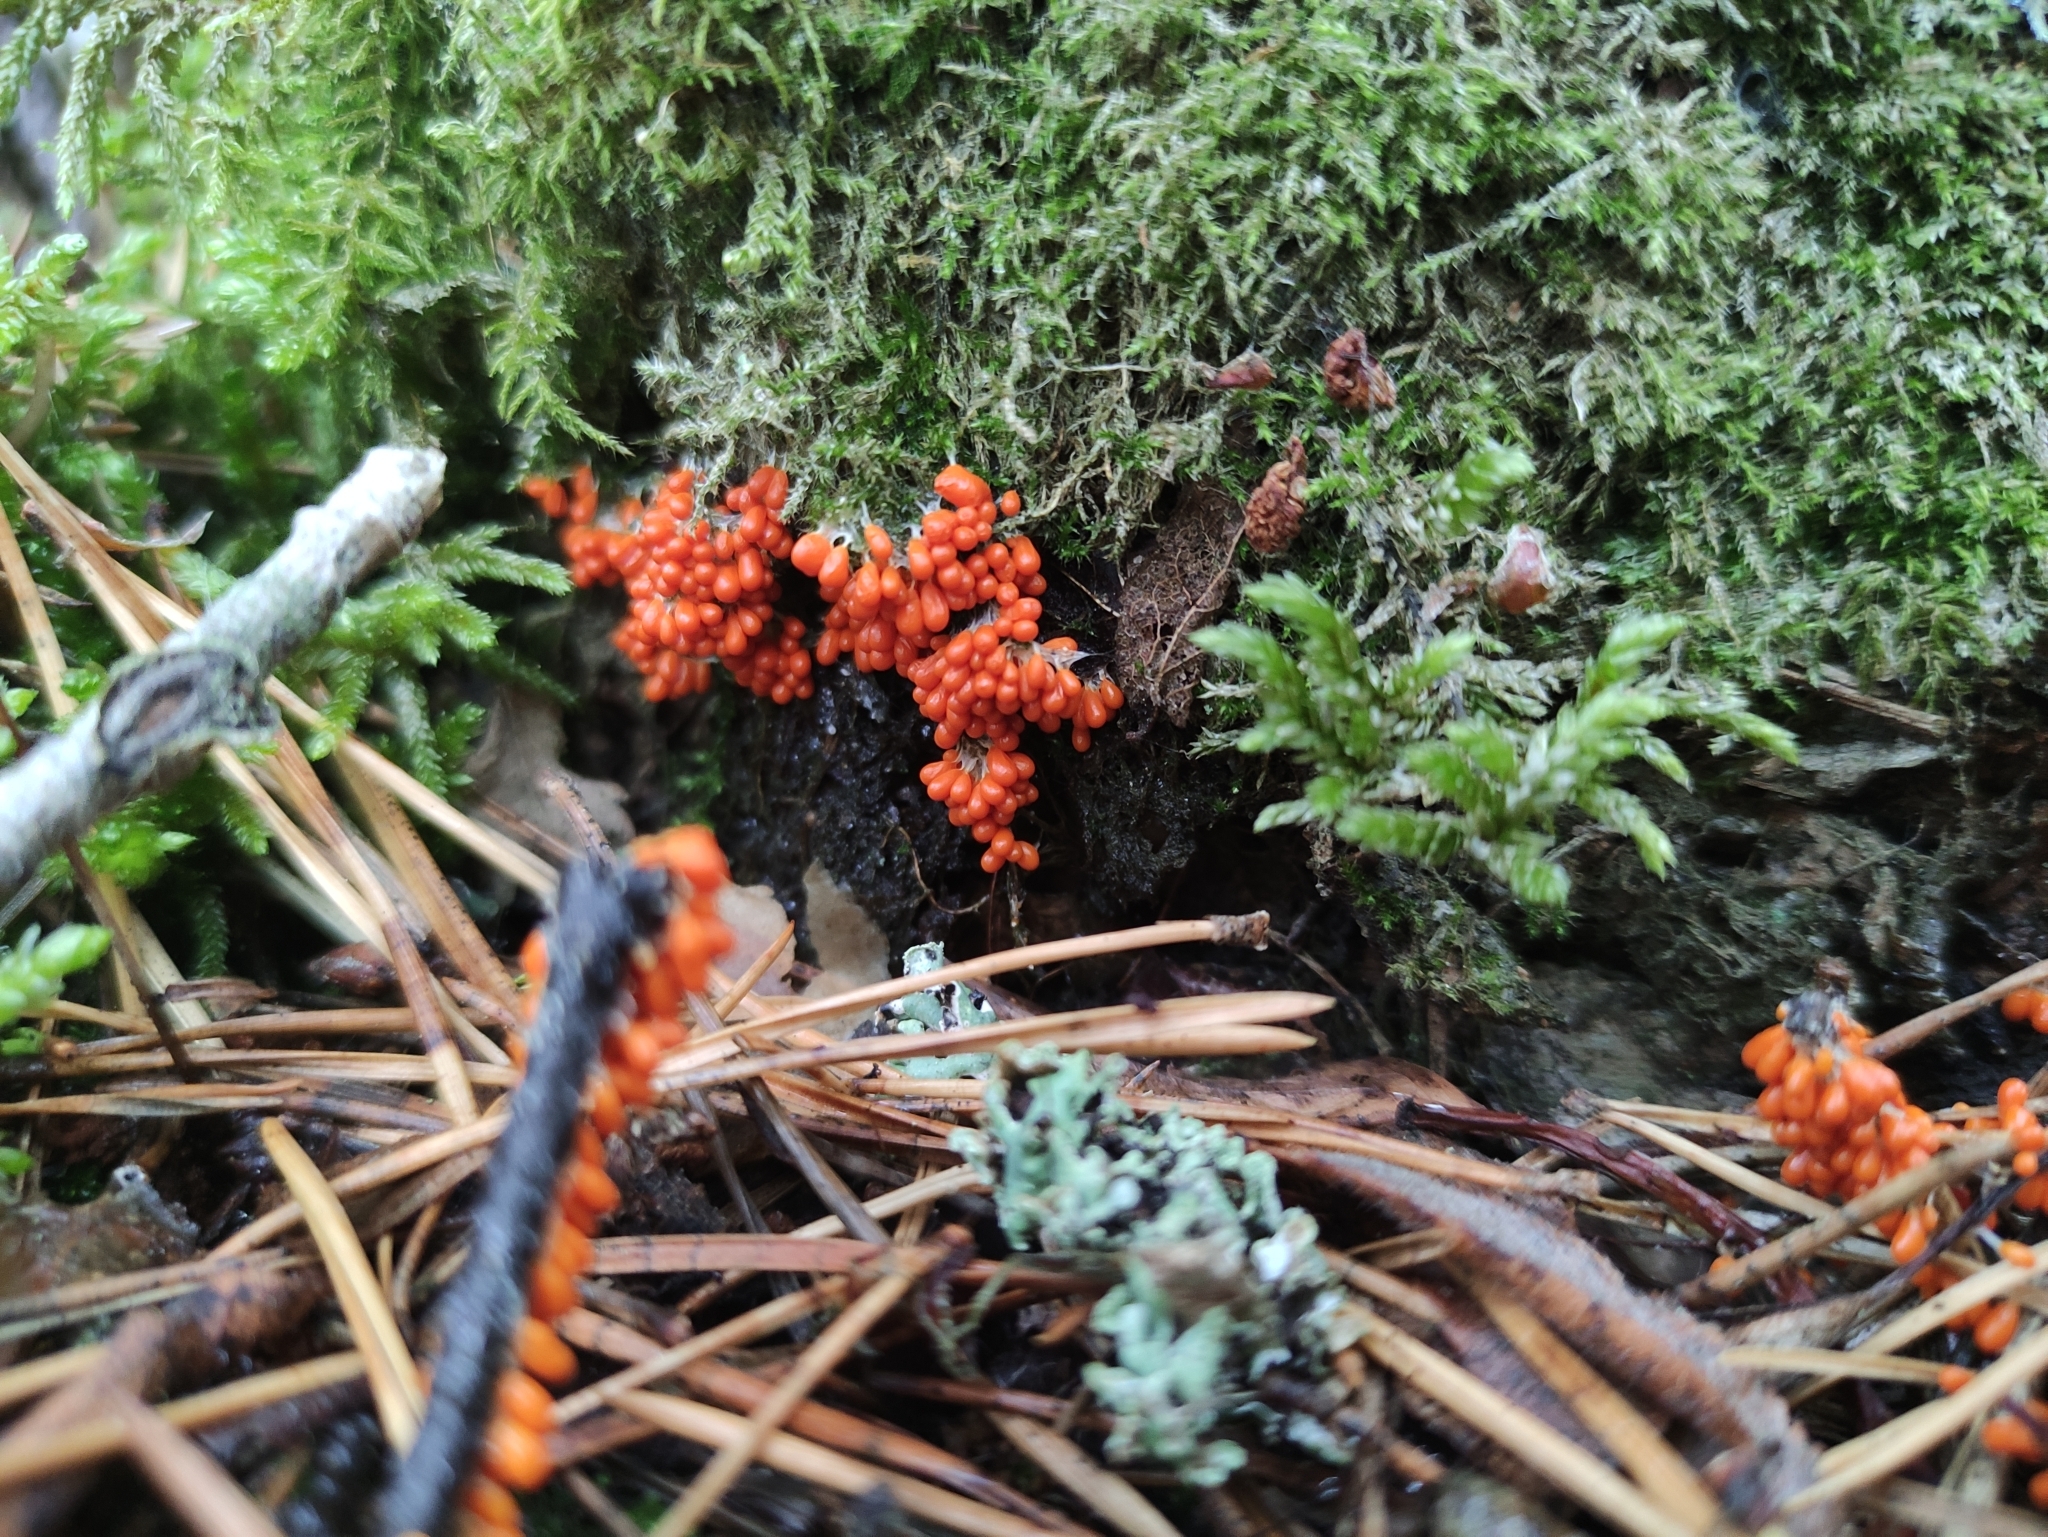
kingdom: Protozoa
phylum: Mycetozoa
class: Myxomycetes
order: Physarales
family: Physaraceae
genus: Leocarpus
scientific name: Leocarpus fragilis
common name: Insect-egg slime
